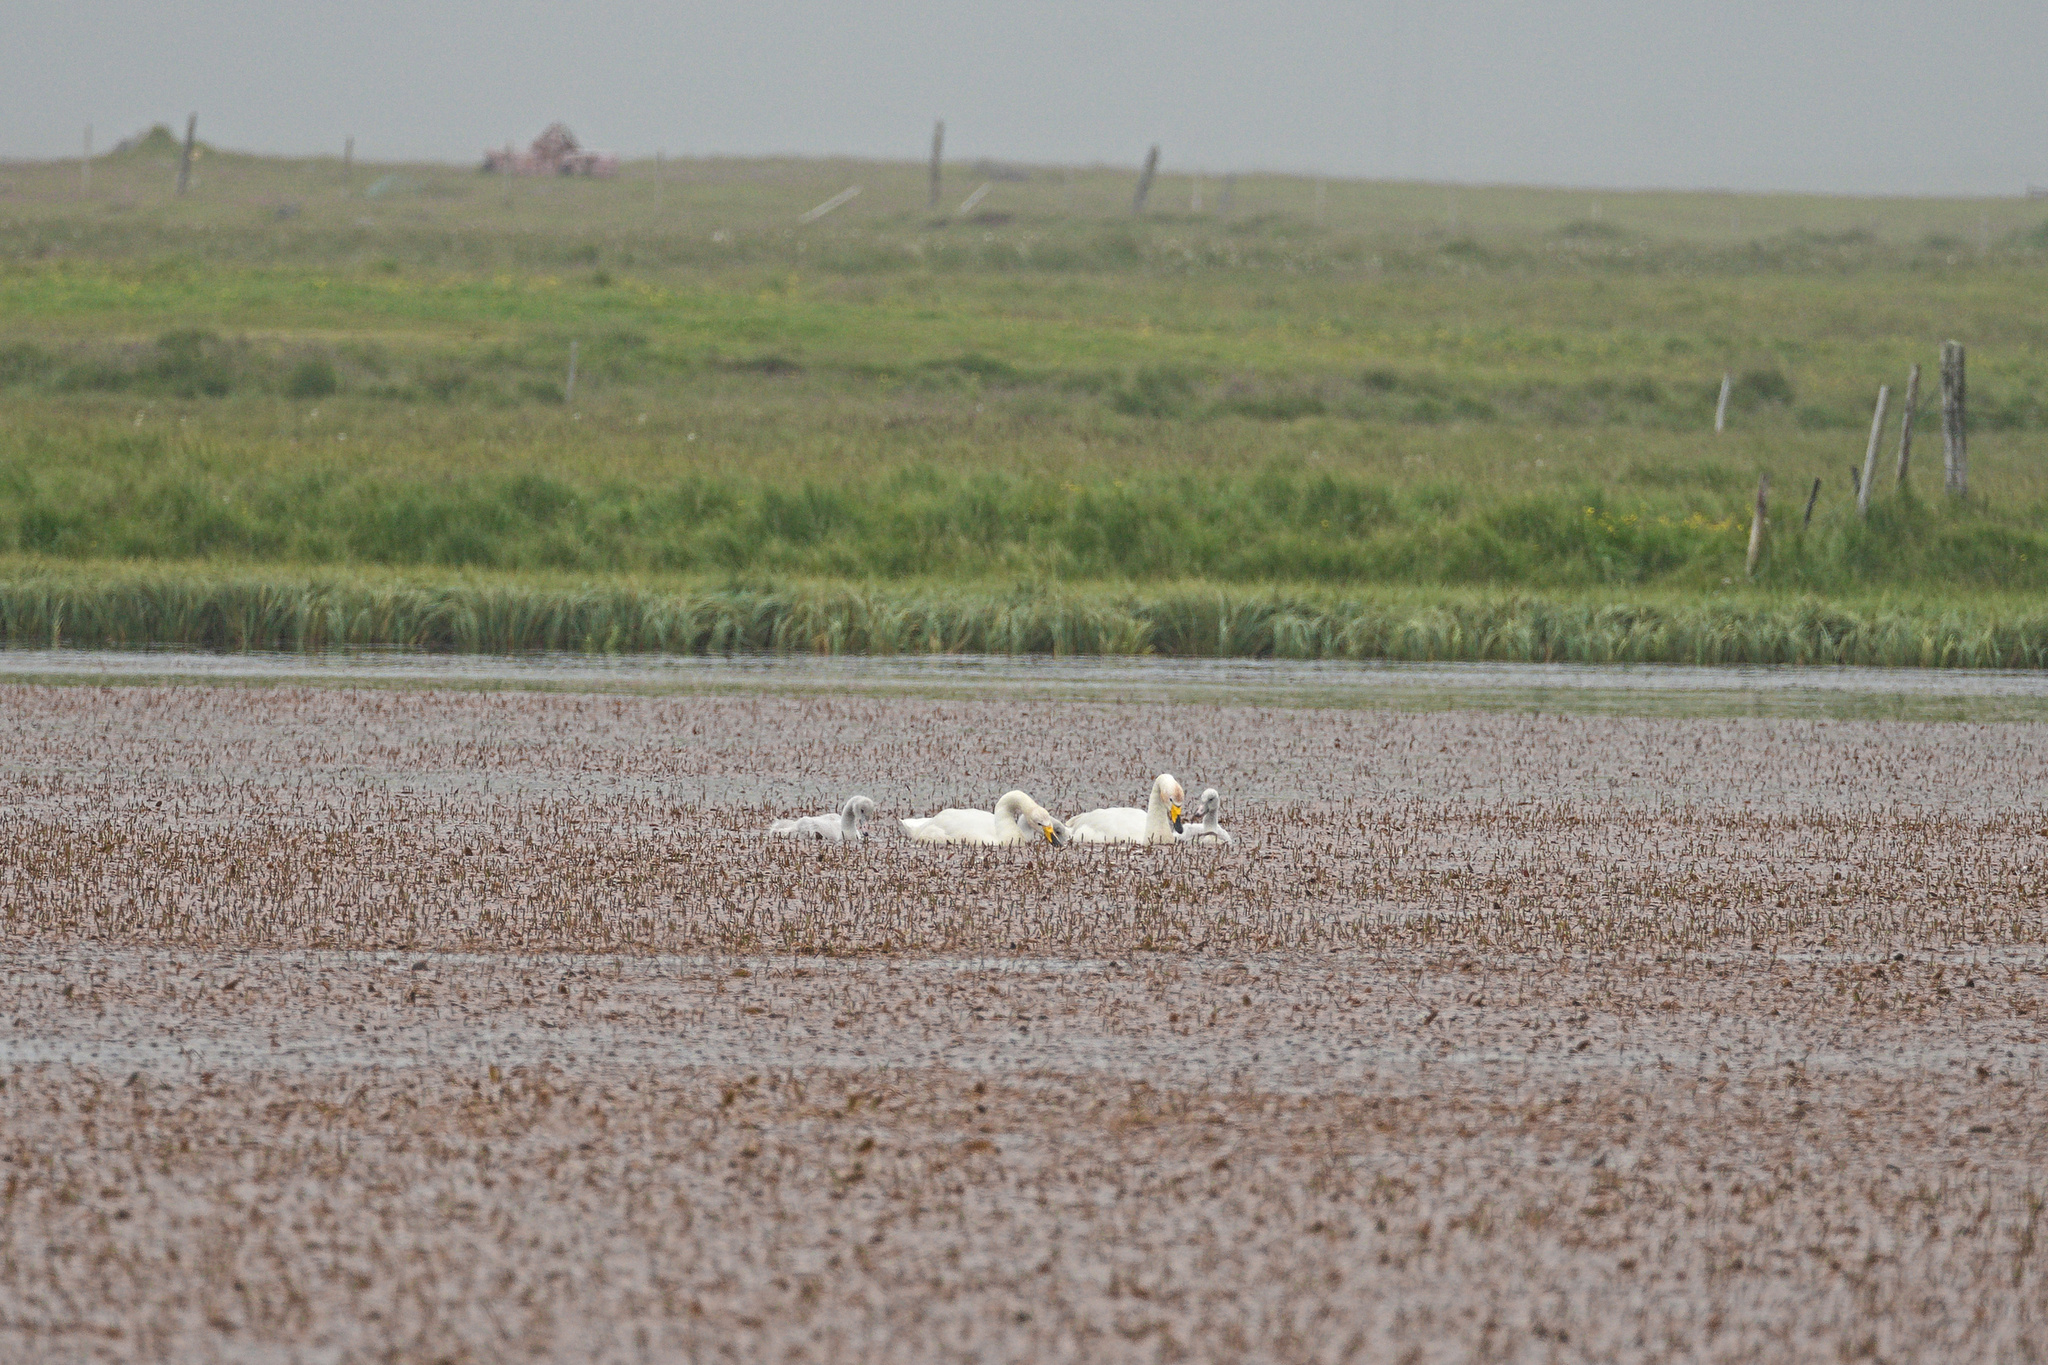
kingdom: Animalia
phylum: Chordata
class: Aves
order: Anseriformes
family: Anatidae
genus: Cygnus
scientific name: Cygnus cygnus
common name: Whooper swan
